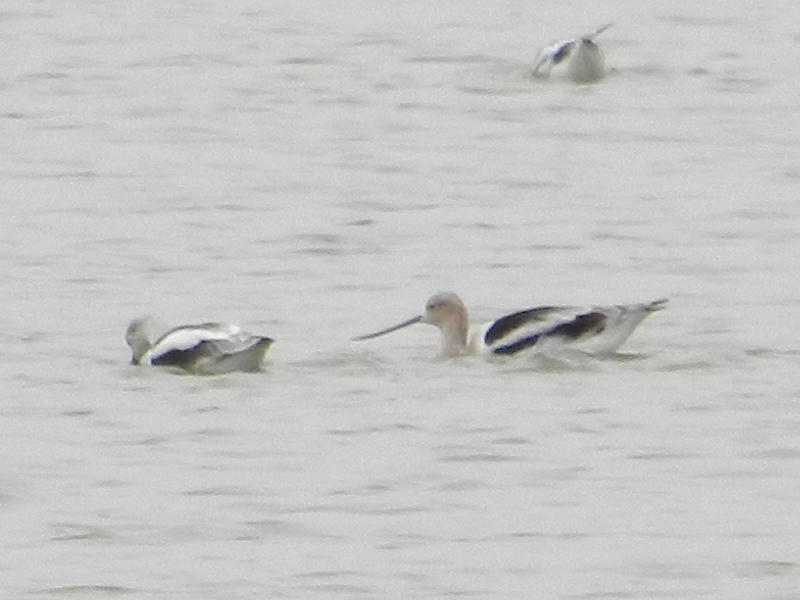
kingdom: Animalia
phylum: Chordata
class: Aves
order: Charadriiformes
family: Recurvirostridae
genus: Recurvirostra
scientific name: Recurvirostra americana
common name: American avocet
